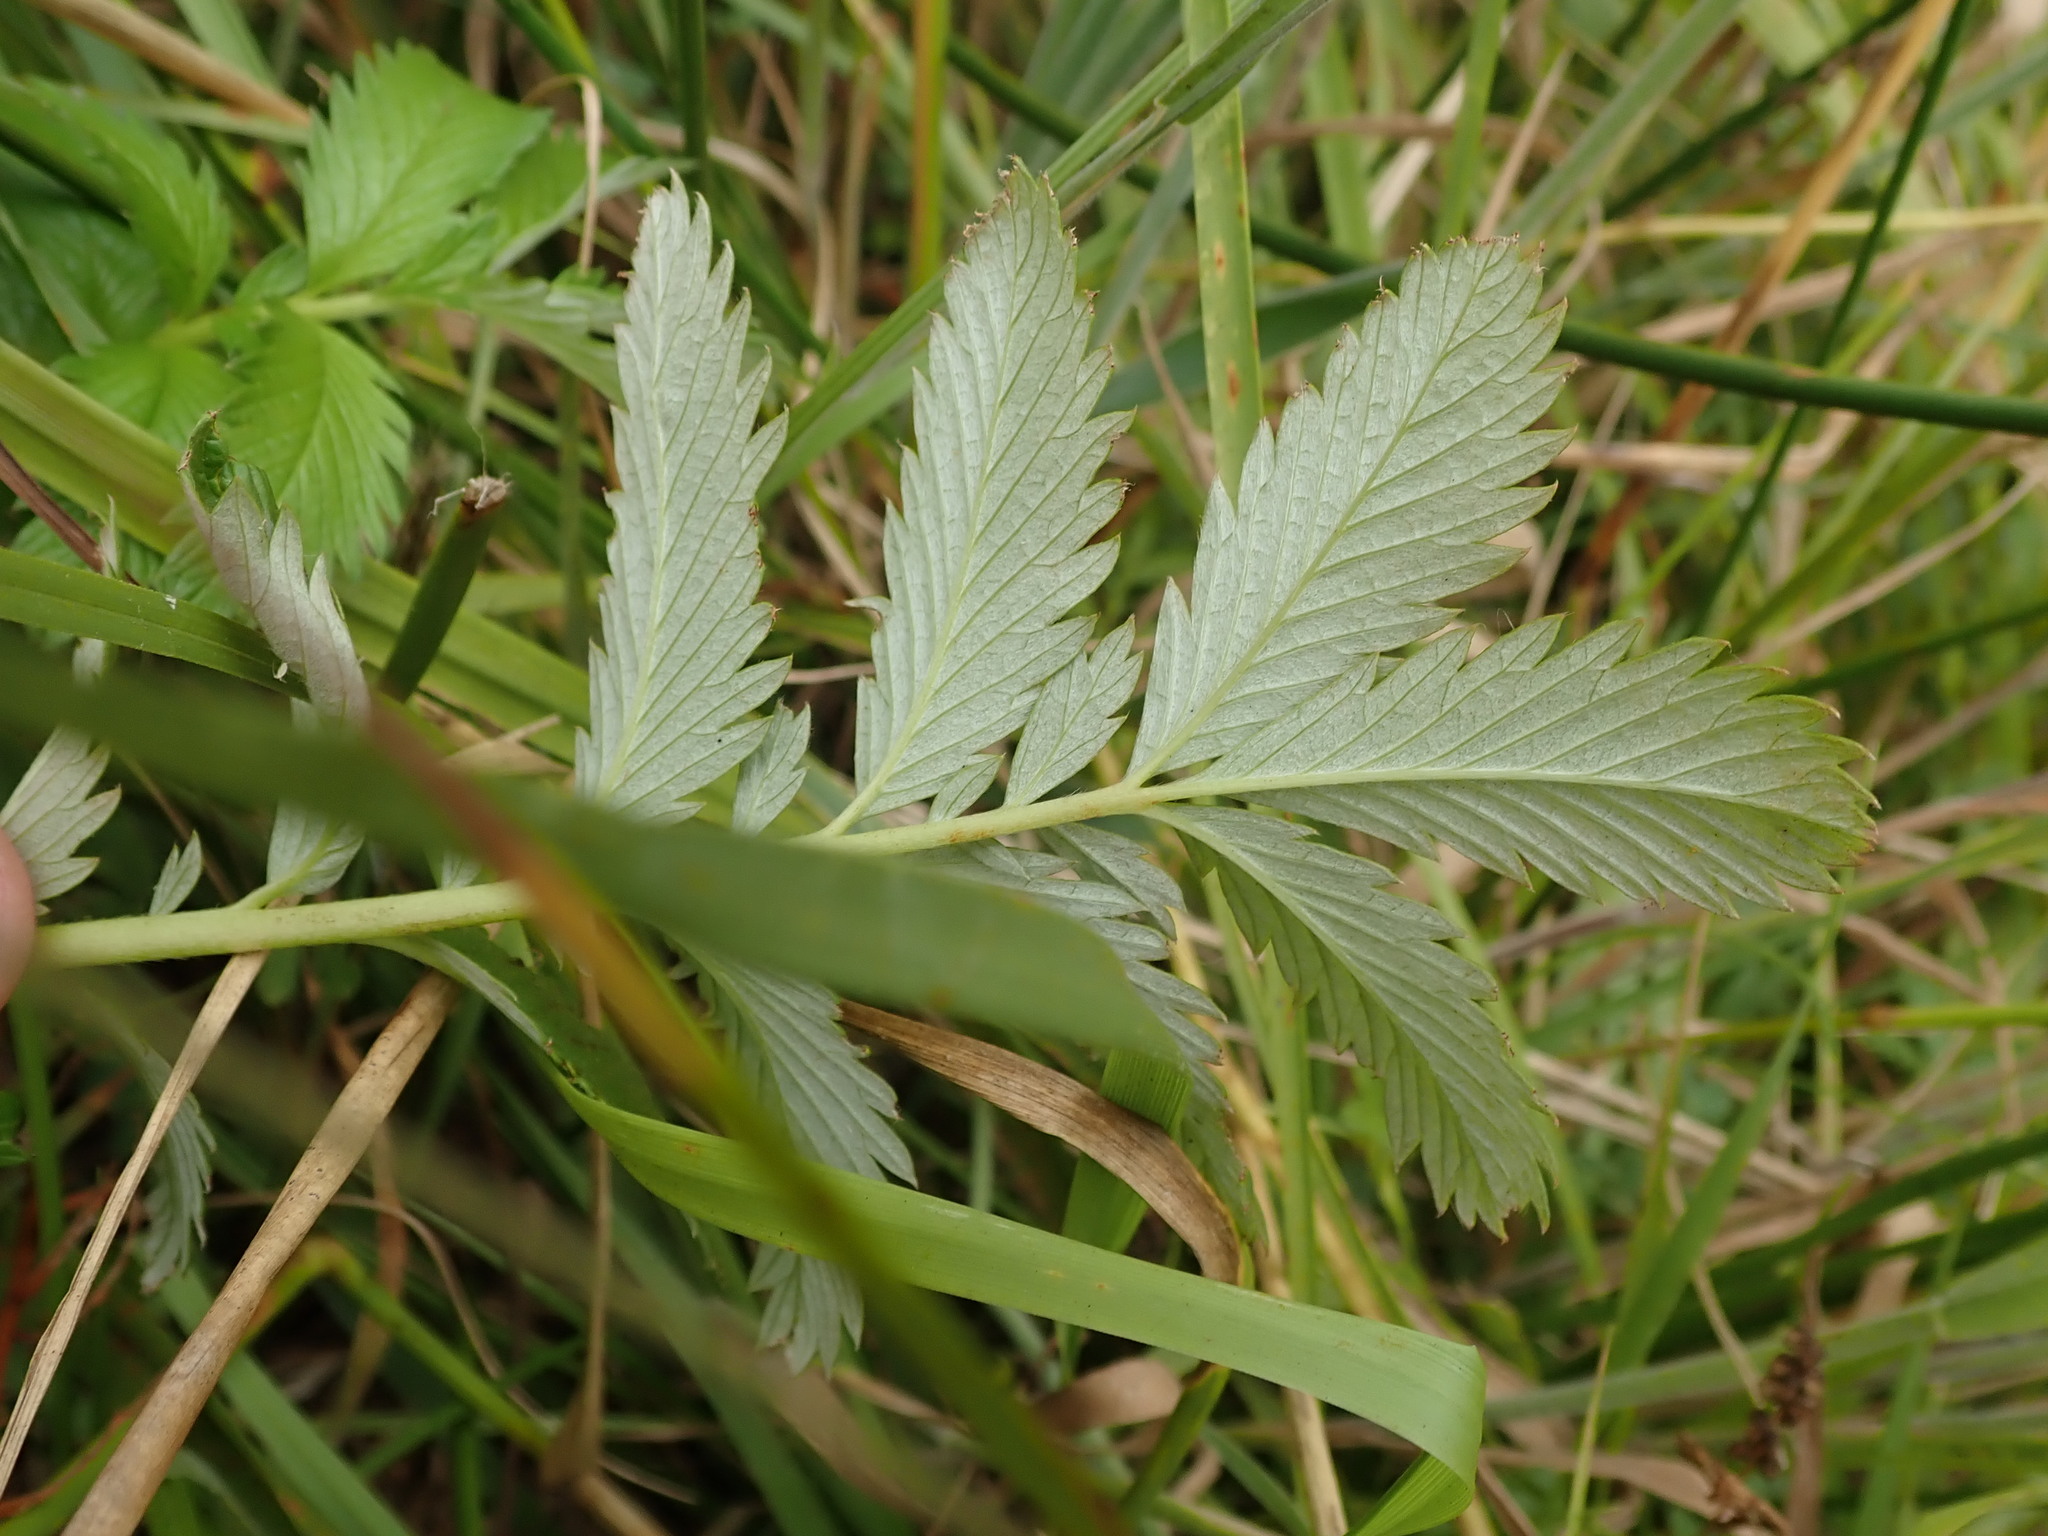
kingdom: Plantae
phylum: Tracheophyta
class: Magnoliopsida
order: Rosales
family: Rosaceae
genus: Argentina
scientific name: Argentina anserina
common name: Common silverweed
